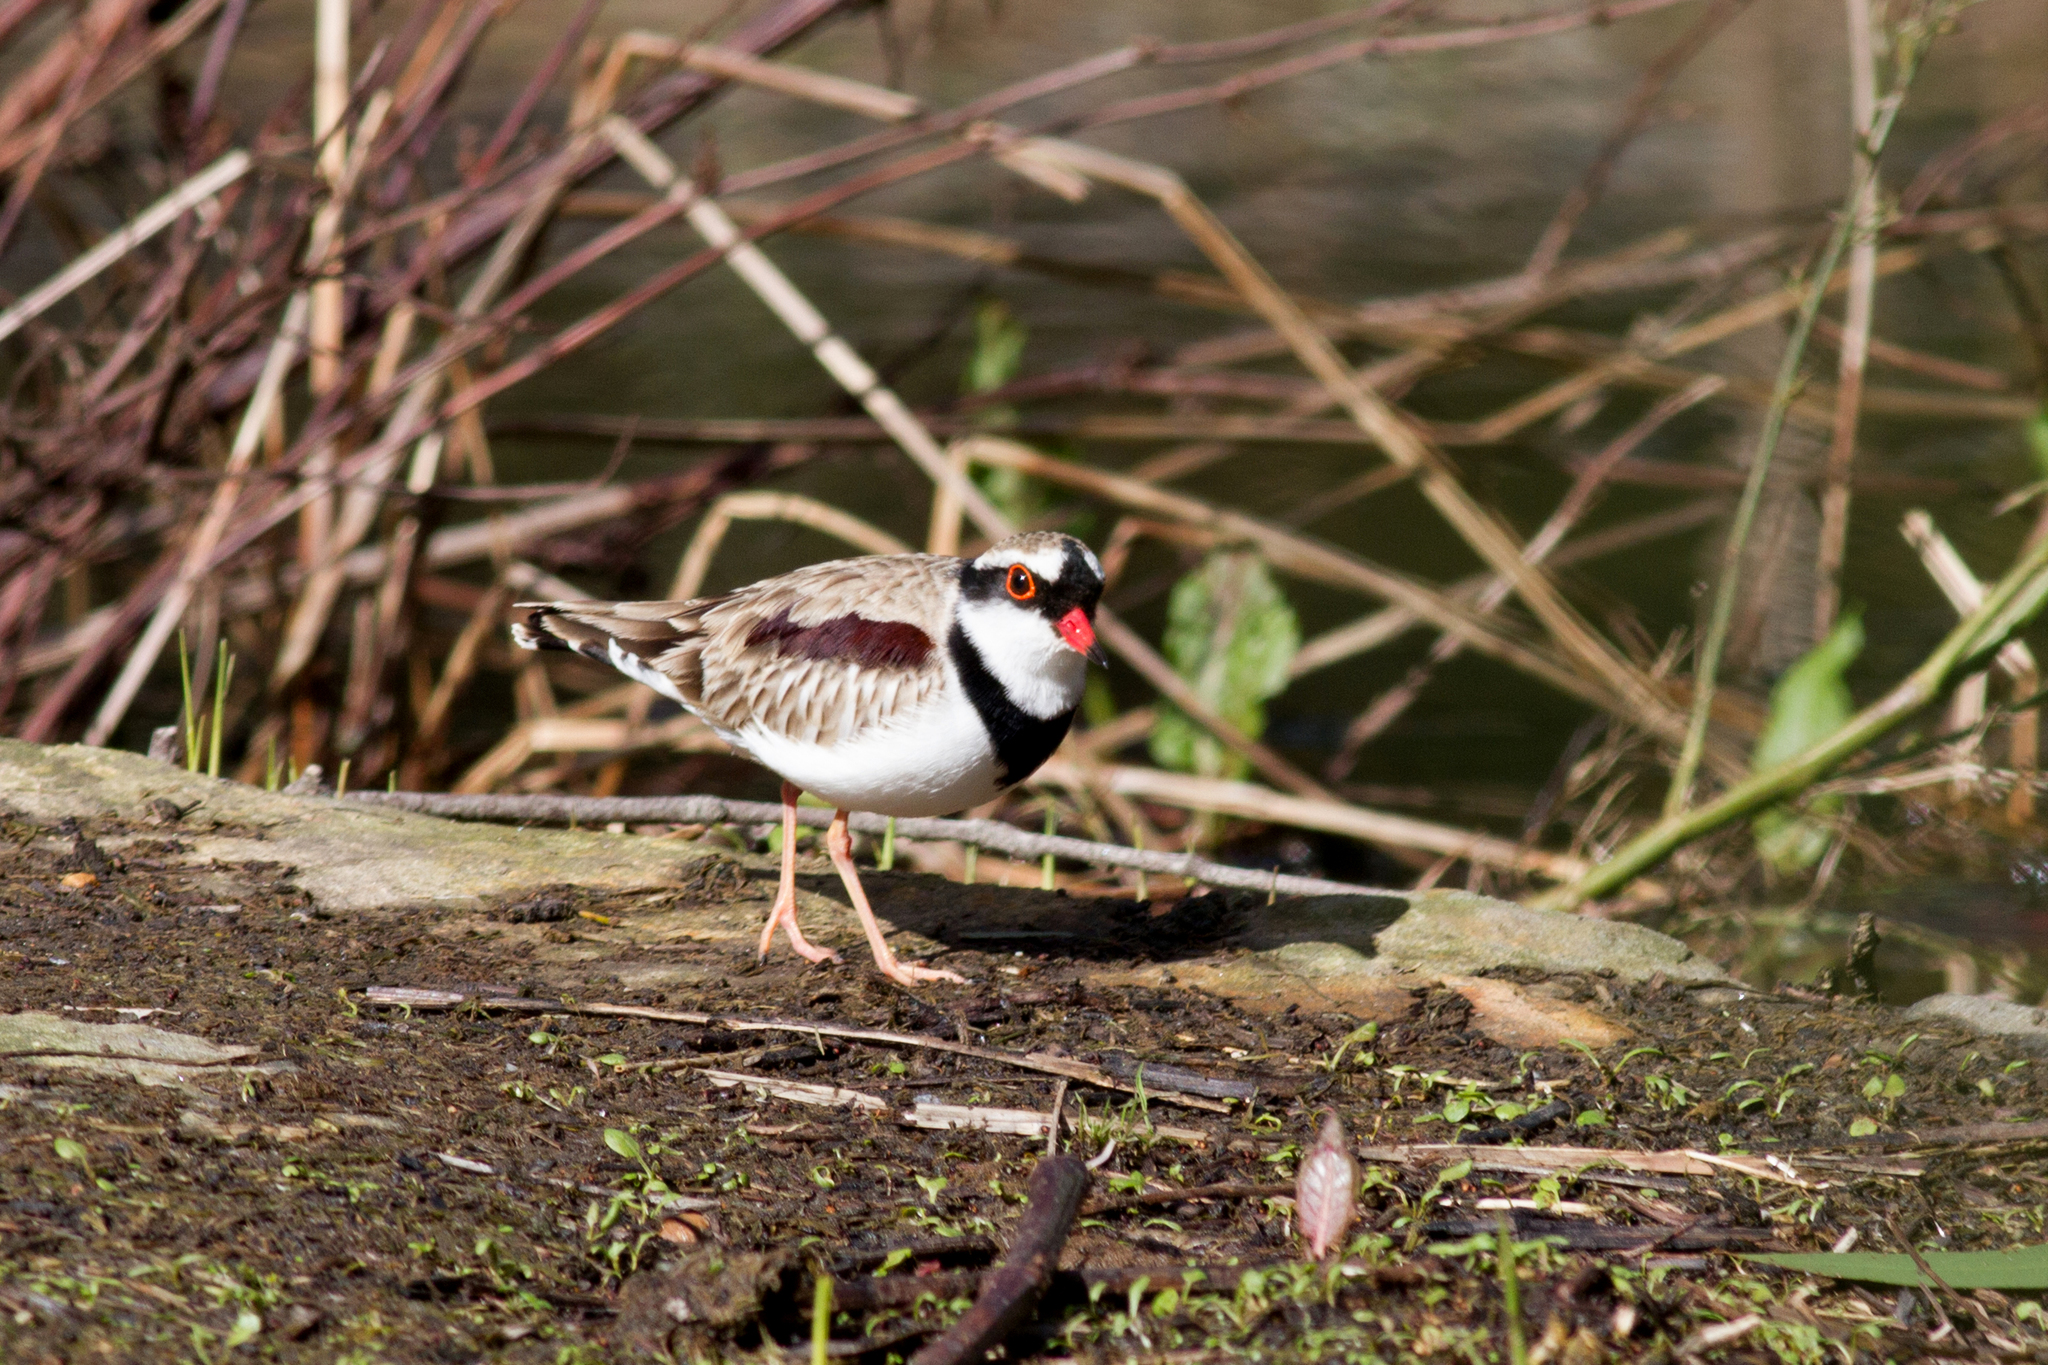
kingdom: Animalia
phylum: Chordata
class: Aves
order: Charadriiformes
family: Charadriidae
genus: Elseyornis
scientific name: Elseyornis melanops
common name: Black-fronted dotterel
